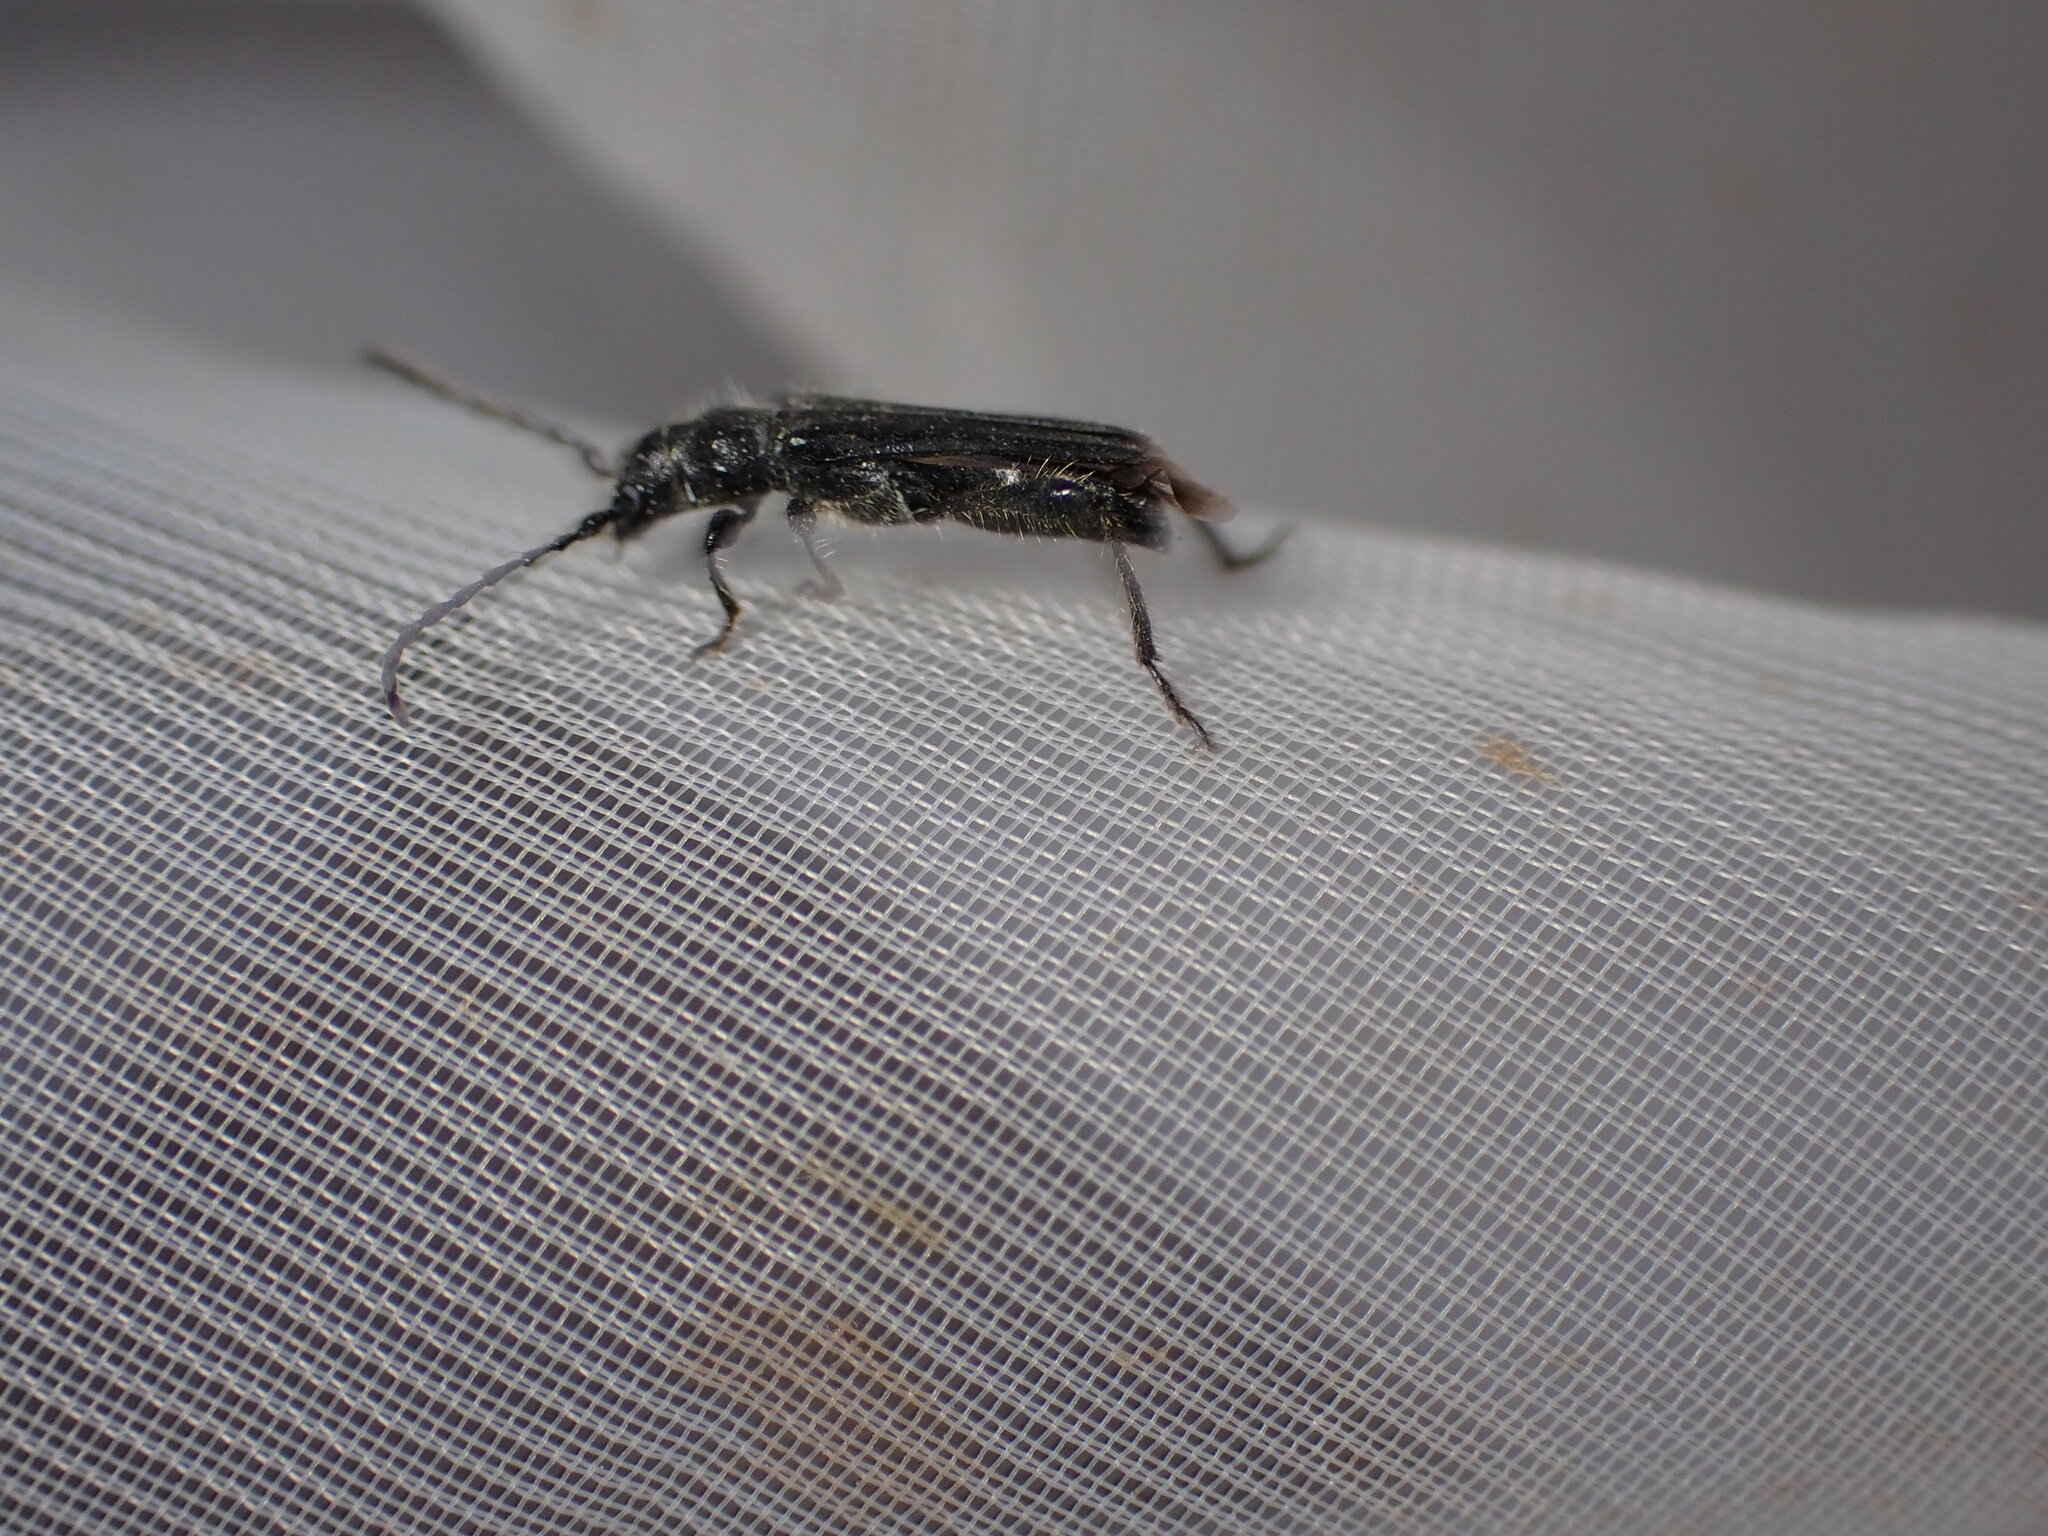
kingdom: Animalia
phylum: Arthropoda
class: Insecta
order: Coleoptera
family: Cerambycidae
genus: Stenopterus
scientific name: Stenopterus ater
